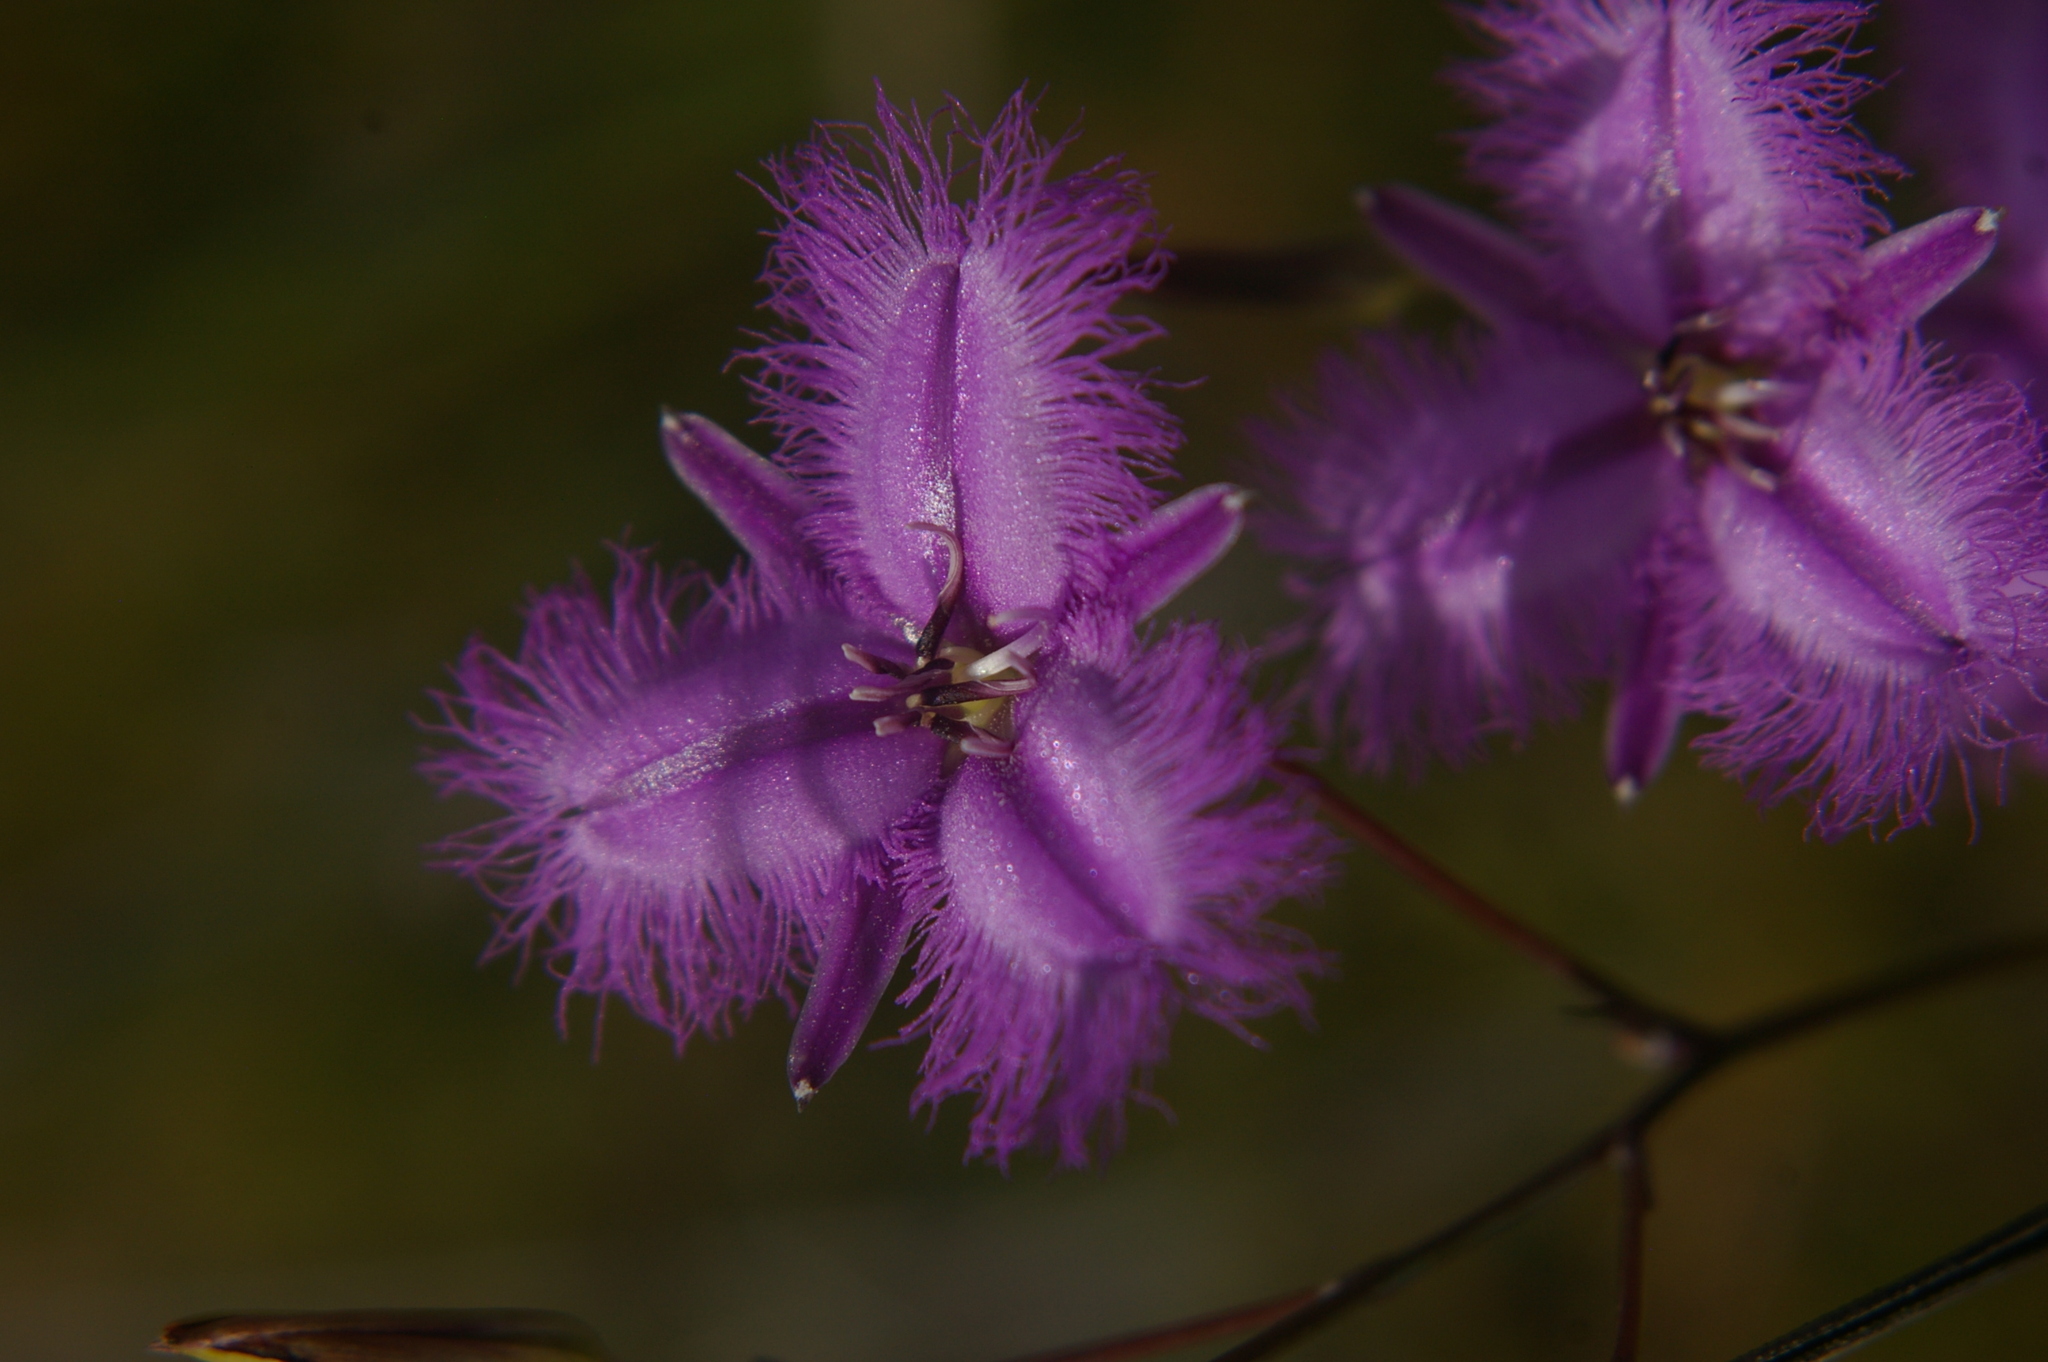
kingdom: Plantae
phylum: Tracheophyta
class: Liliopsida
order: Asparagales
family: Asparagaceae
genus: Thysanotus
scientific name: Thysanotus tuberosus
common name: Common fringed-lily
